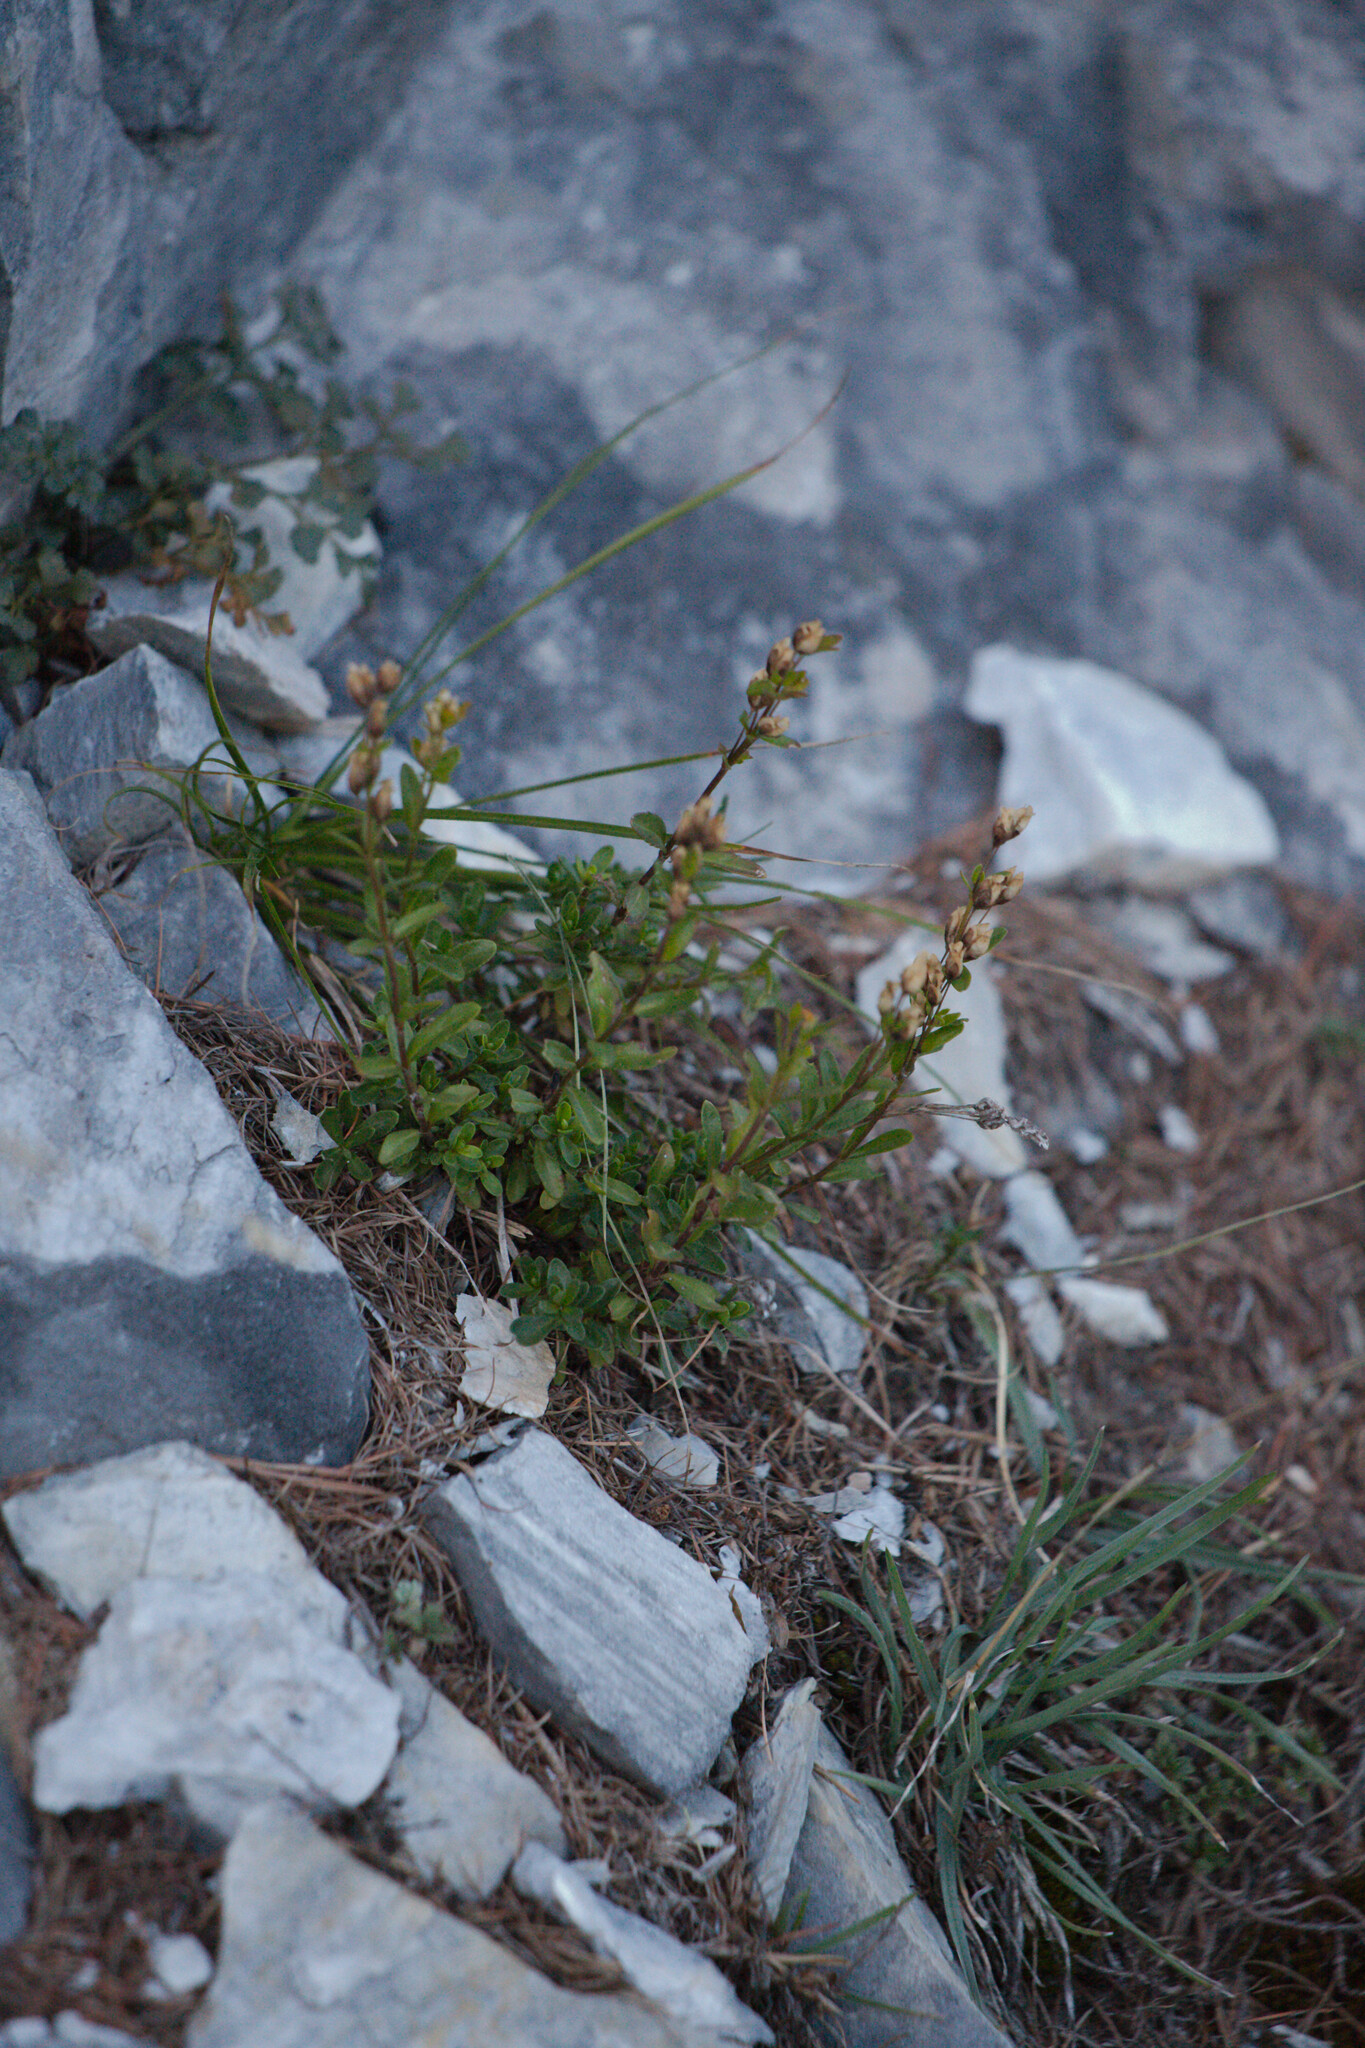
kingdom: Plantae
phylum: Tracheophyta
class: Magnoliopsida
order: Lamiales
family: Plantaginaceae
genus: Veronica
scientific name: Veronica fruticans
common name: Rock speedwell
